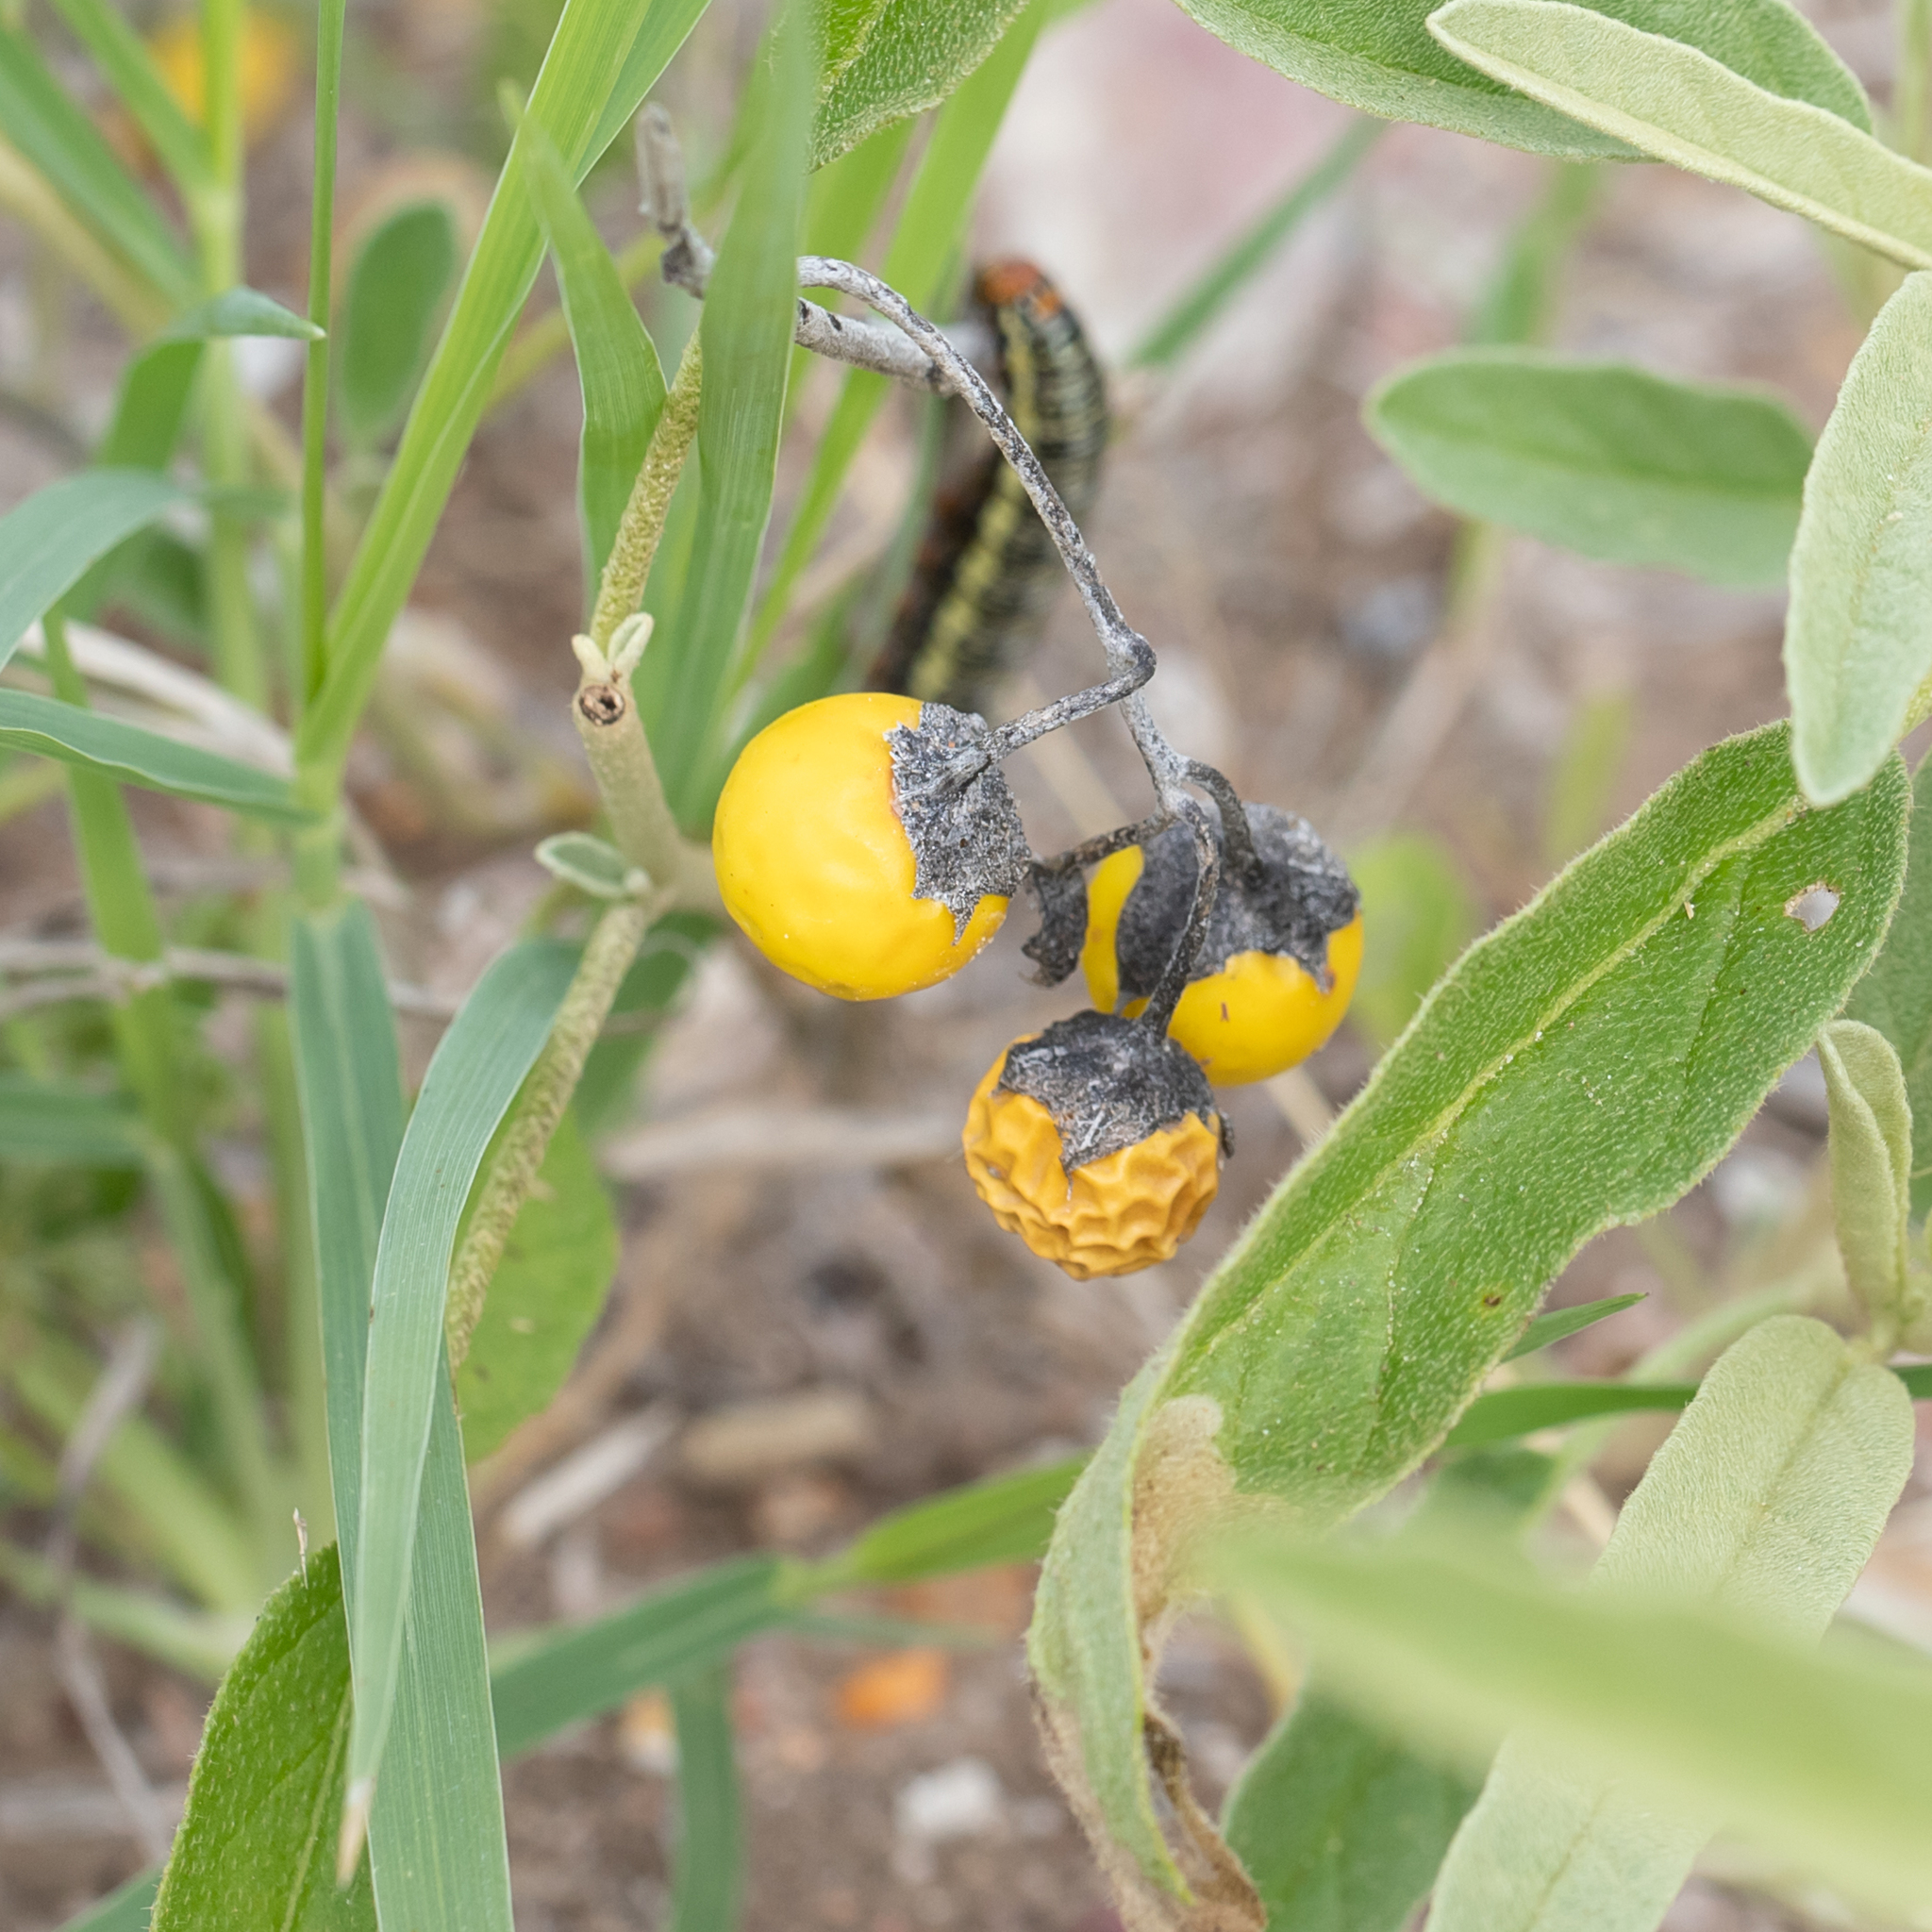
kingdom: Plantae
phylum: Tracheophyta
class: Magnoliopsida
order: Solanales
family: Solanaceae
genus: Solanum
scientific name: Solanum esuriale
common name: Wild tomato
